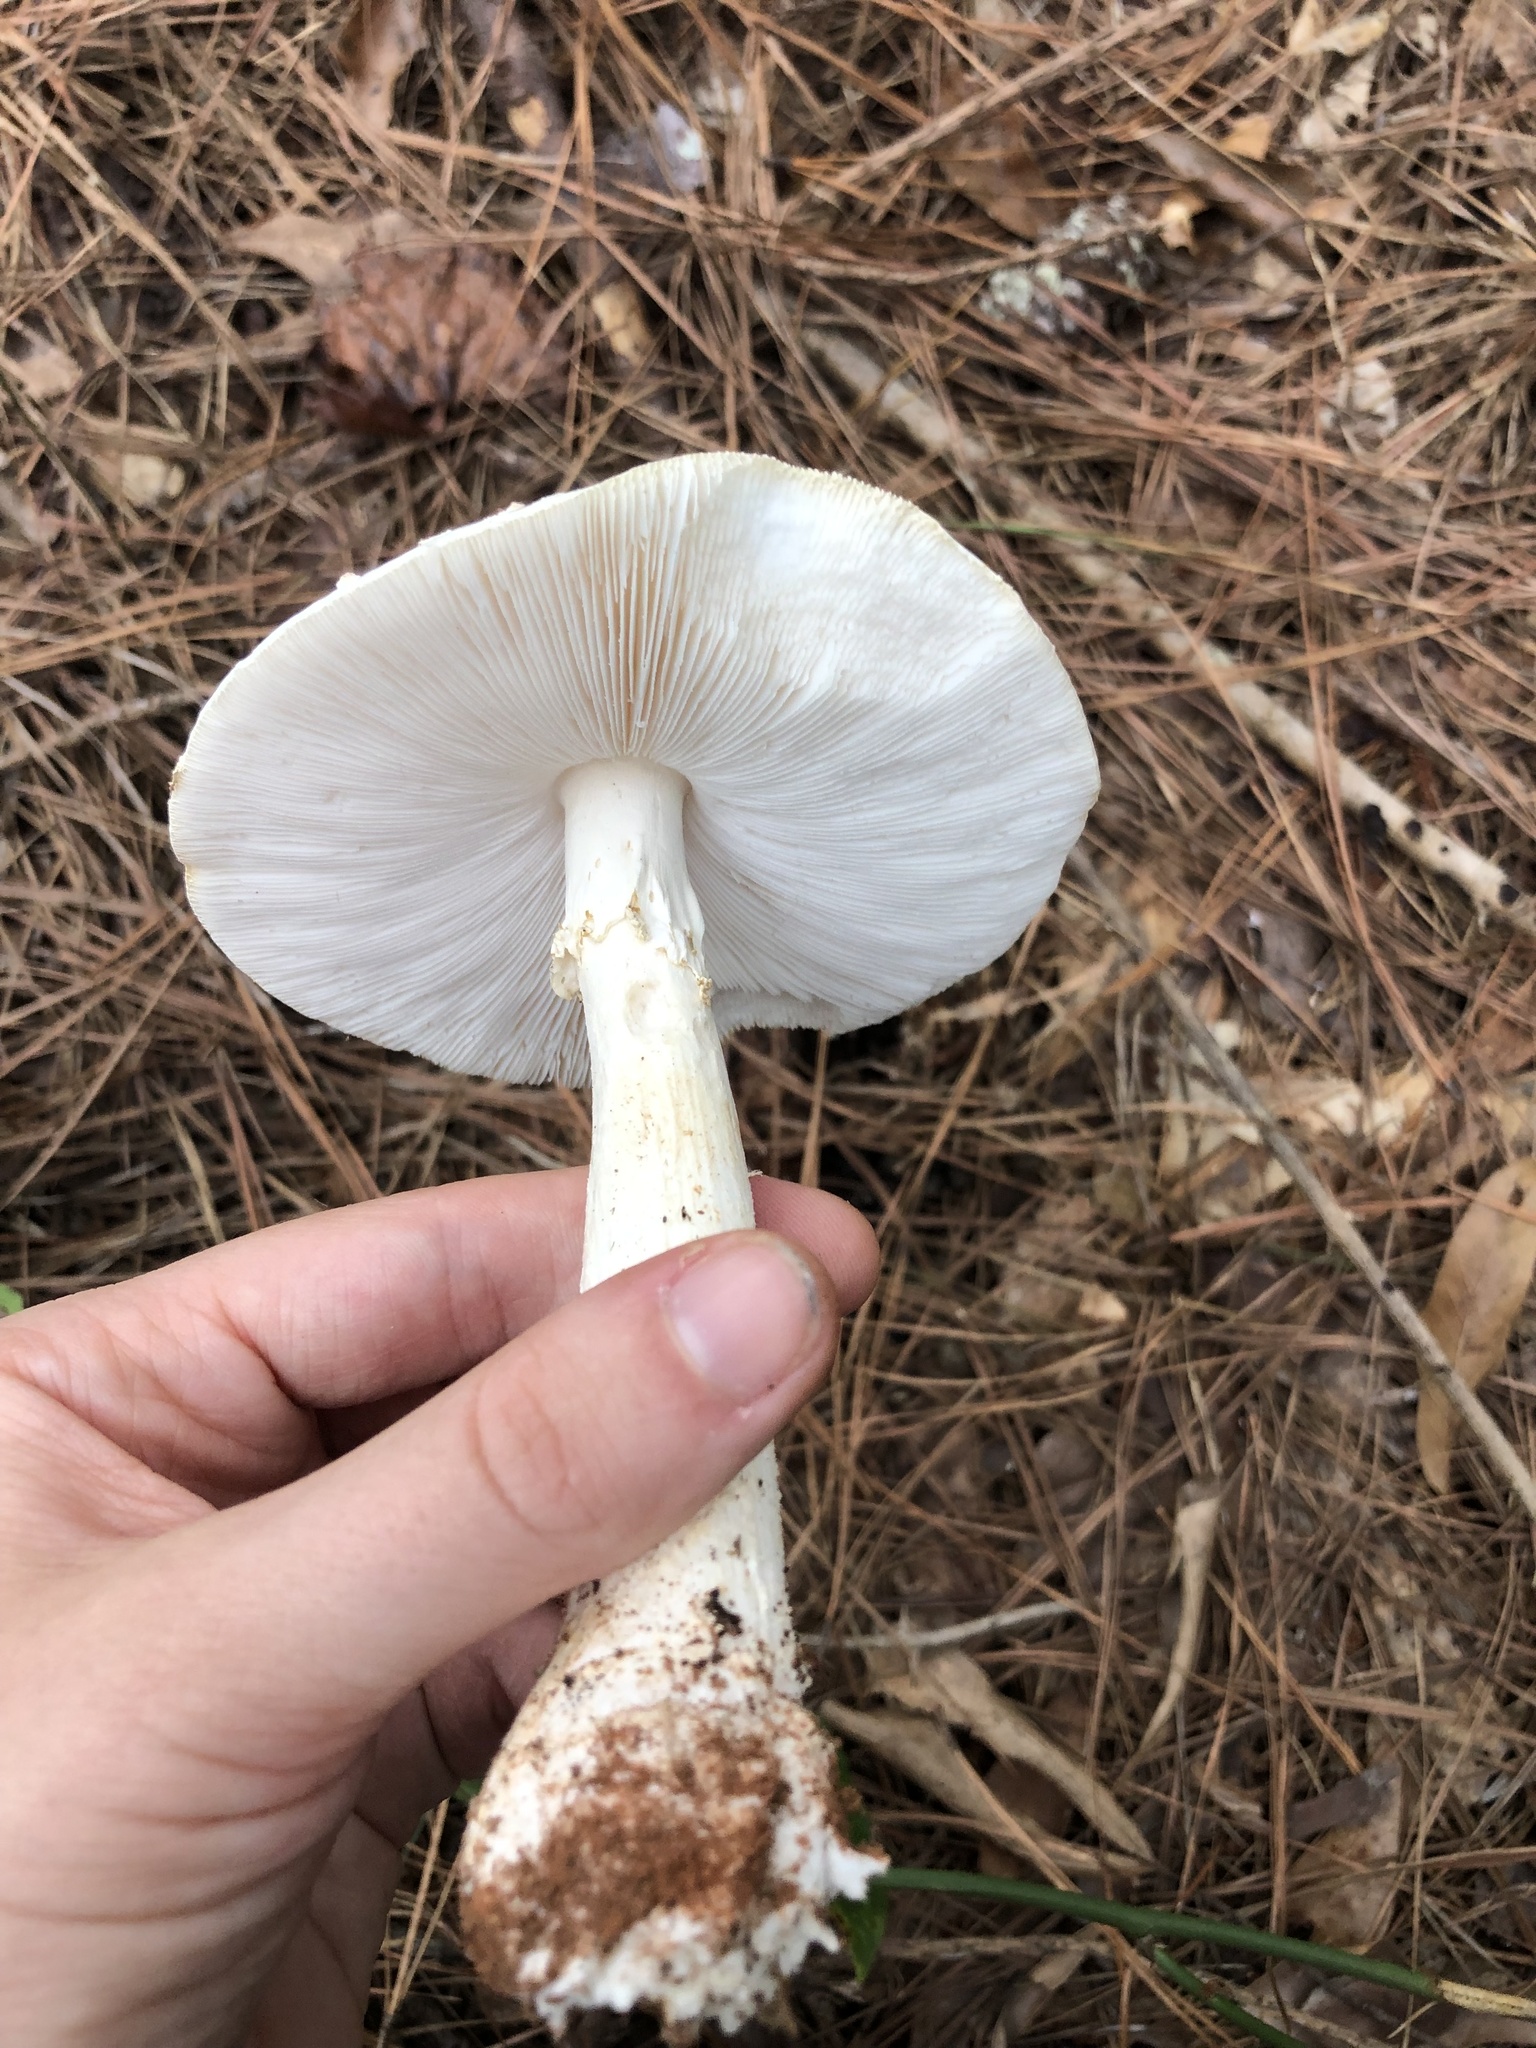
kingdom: Fungi
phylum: Basidiomycota
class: Agaricomycetes
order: Agaricales
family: Amanitaceae
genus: Amanita
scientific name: Amanita bisporigera
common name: Eastern north american destroying angel
